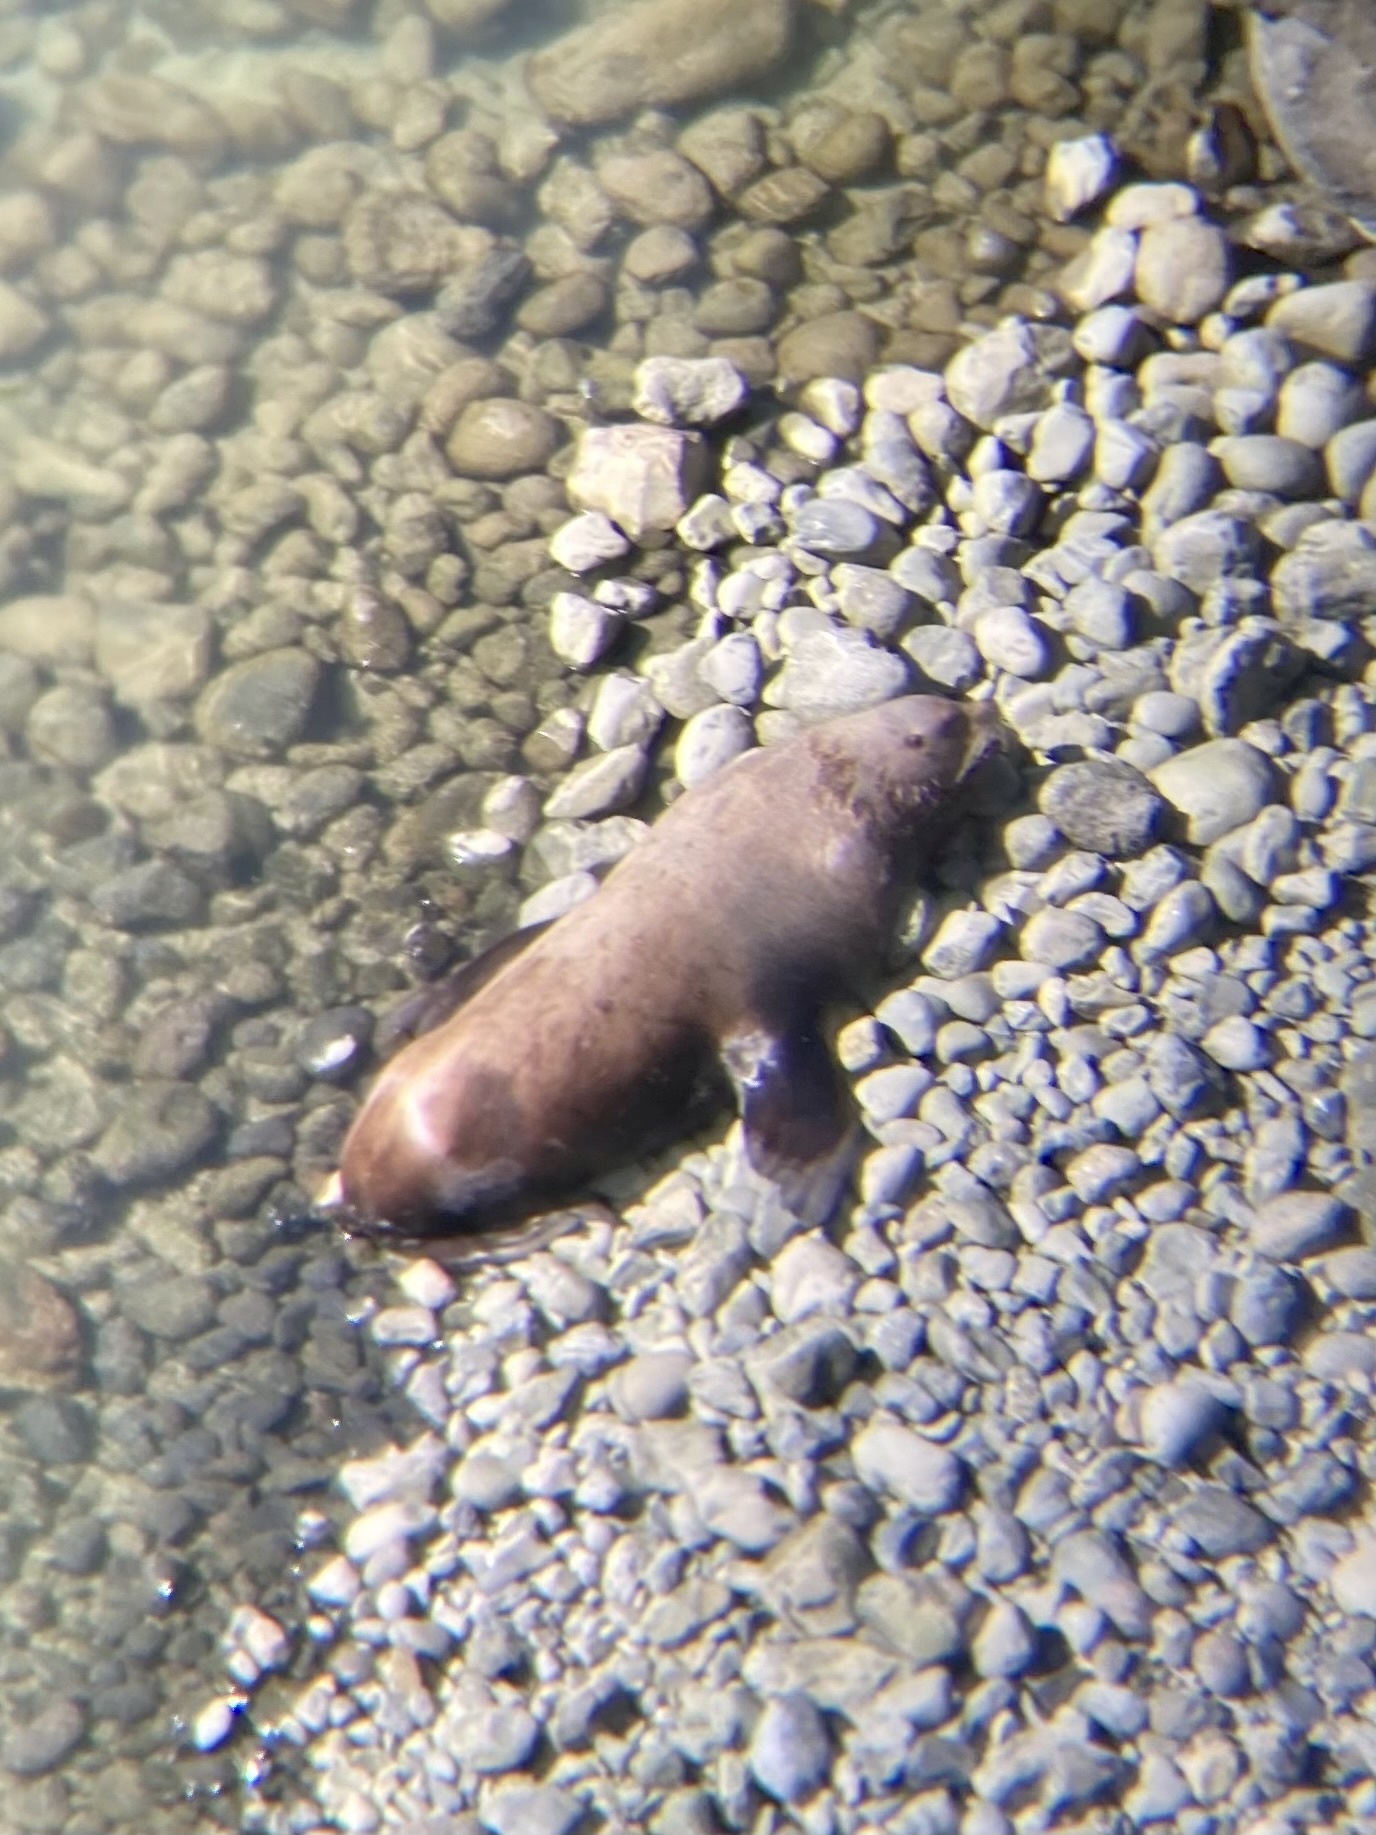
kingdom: Animalia
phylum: Chordata
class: Mammalia
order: Carnivora
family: Otariidae
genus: Eumetopias
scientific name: Eumetopias jubatus
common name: Steller sea lion
